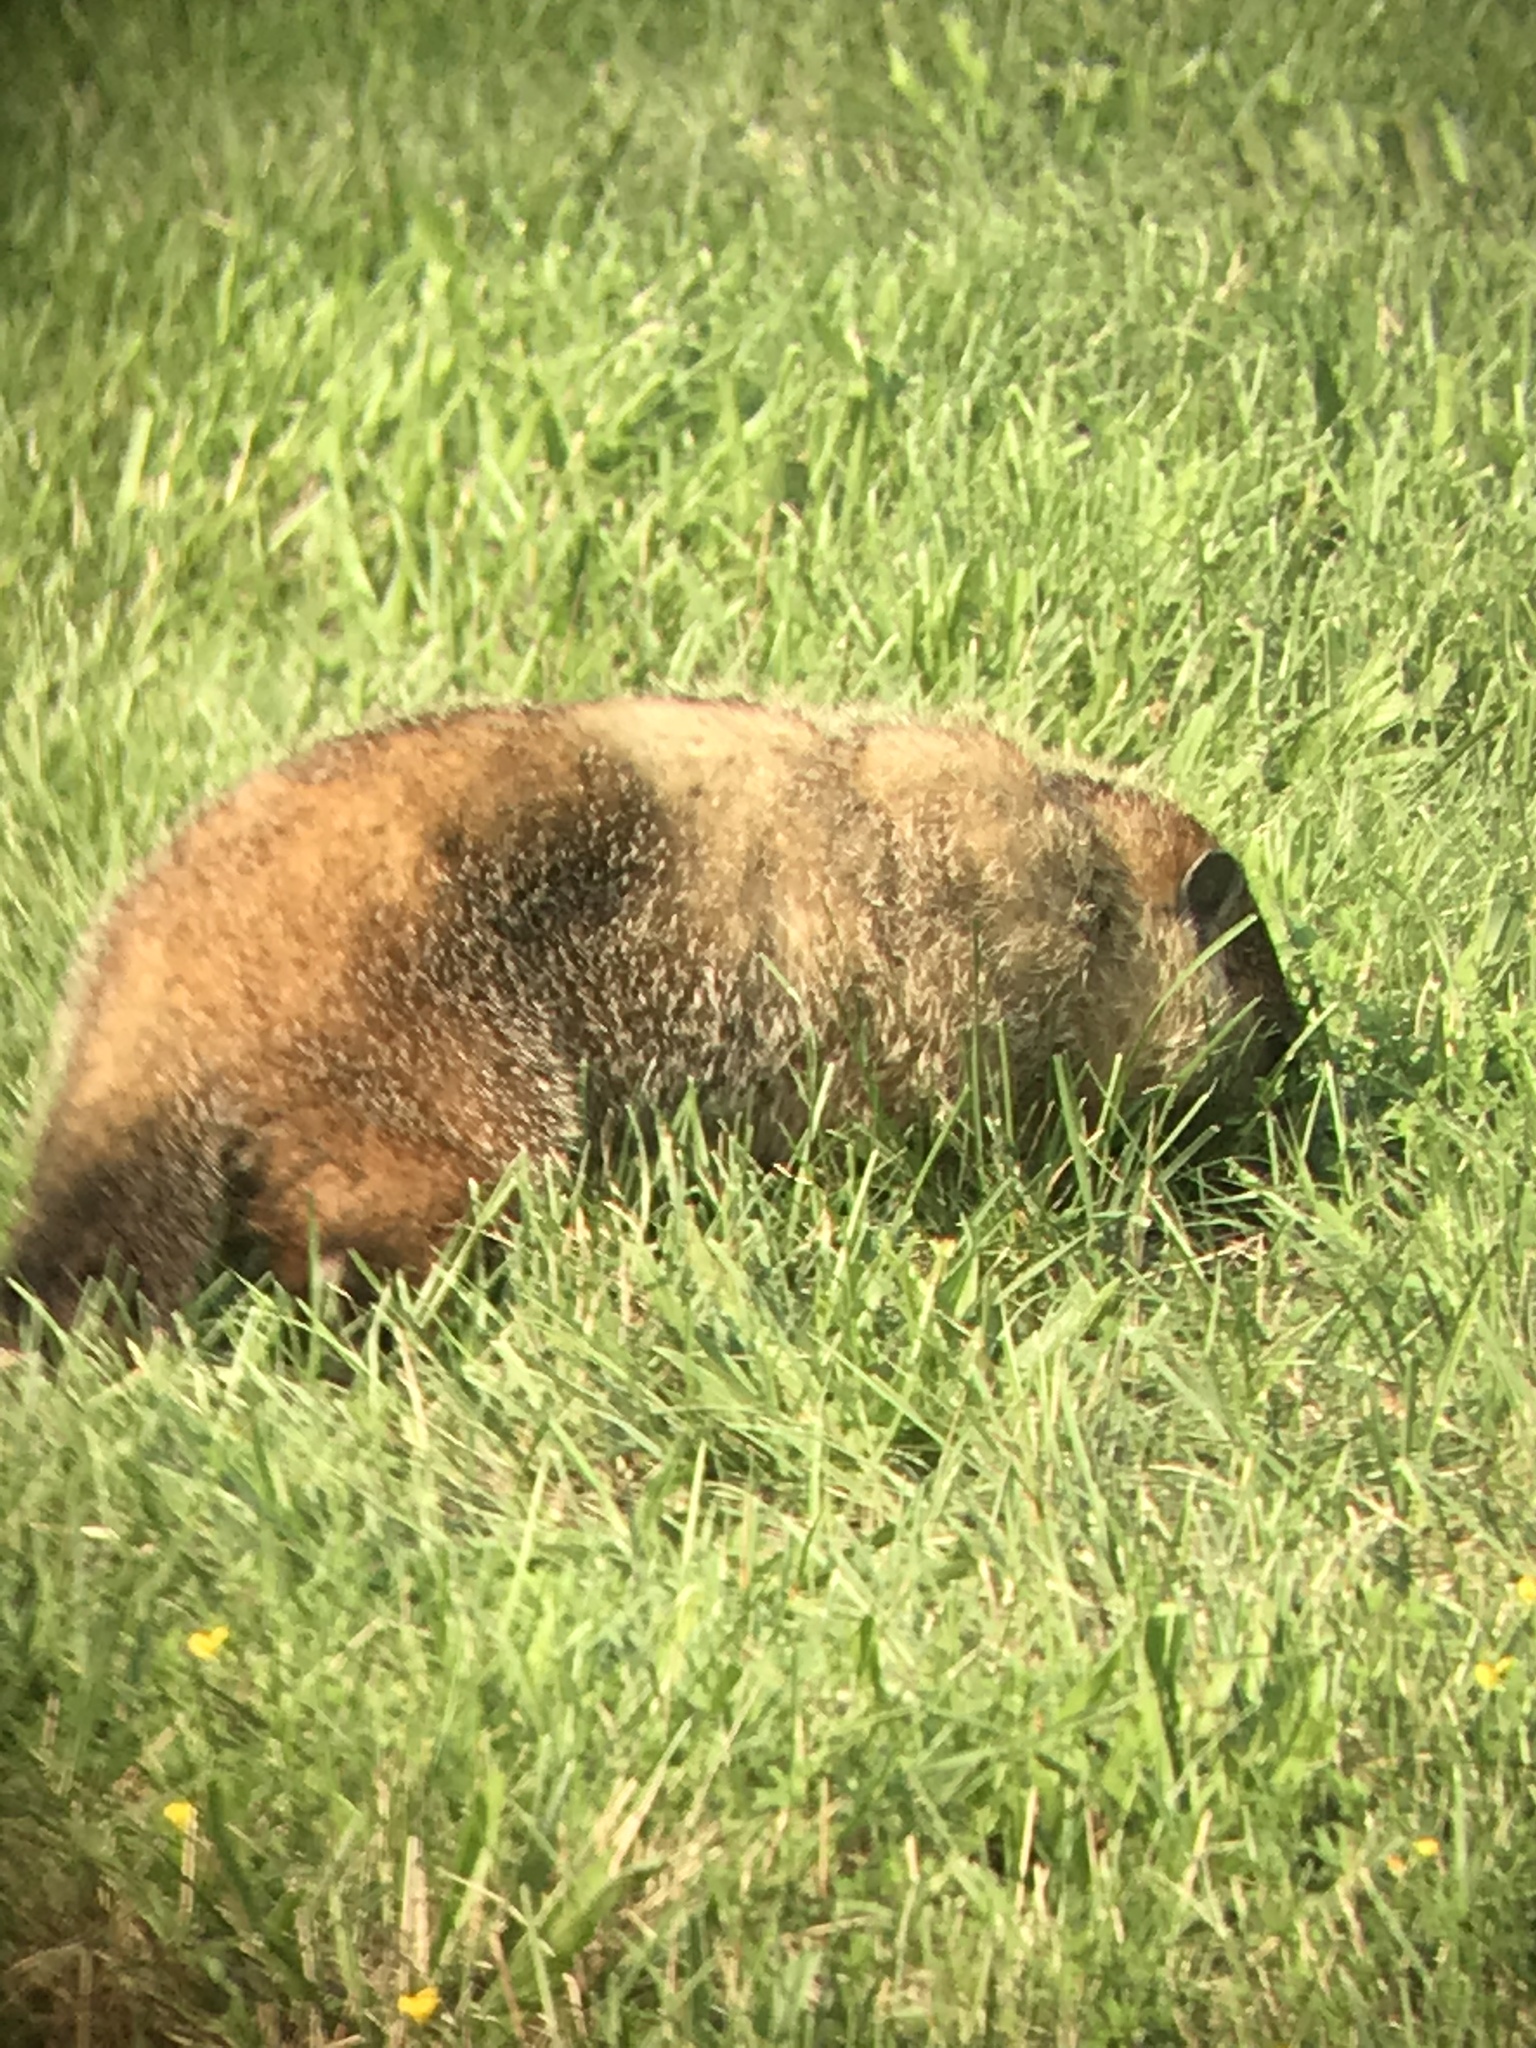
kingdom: Animalia
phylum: Chordata
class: Mammalia
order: Rodentia
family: Sciuridae
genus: Marmota
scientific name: Marmota monax
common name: Groundhog
